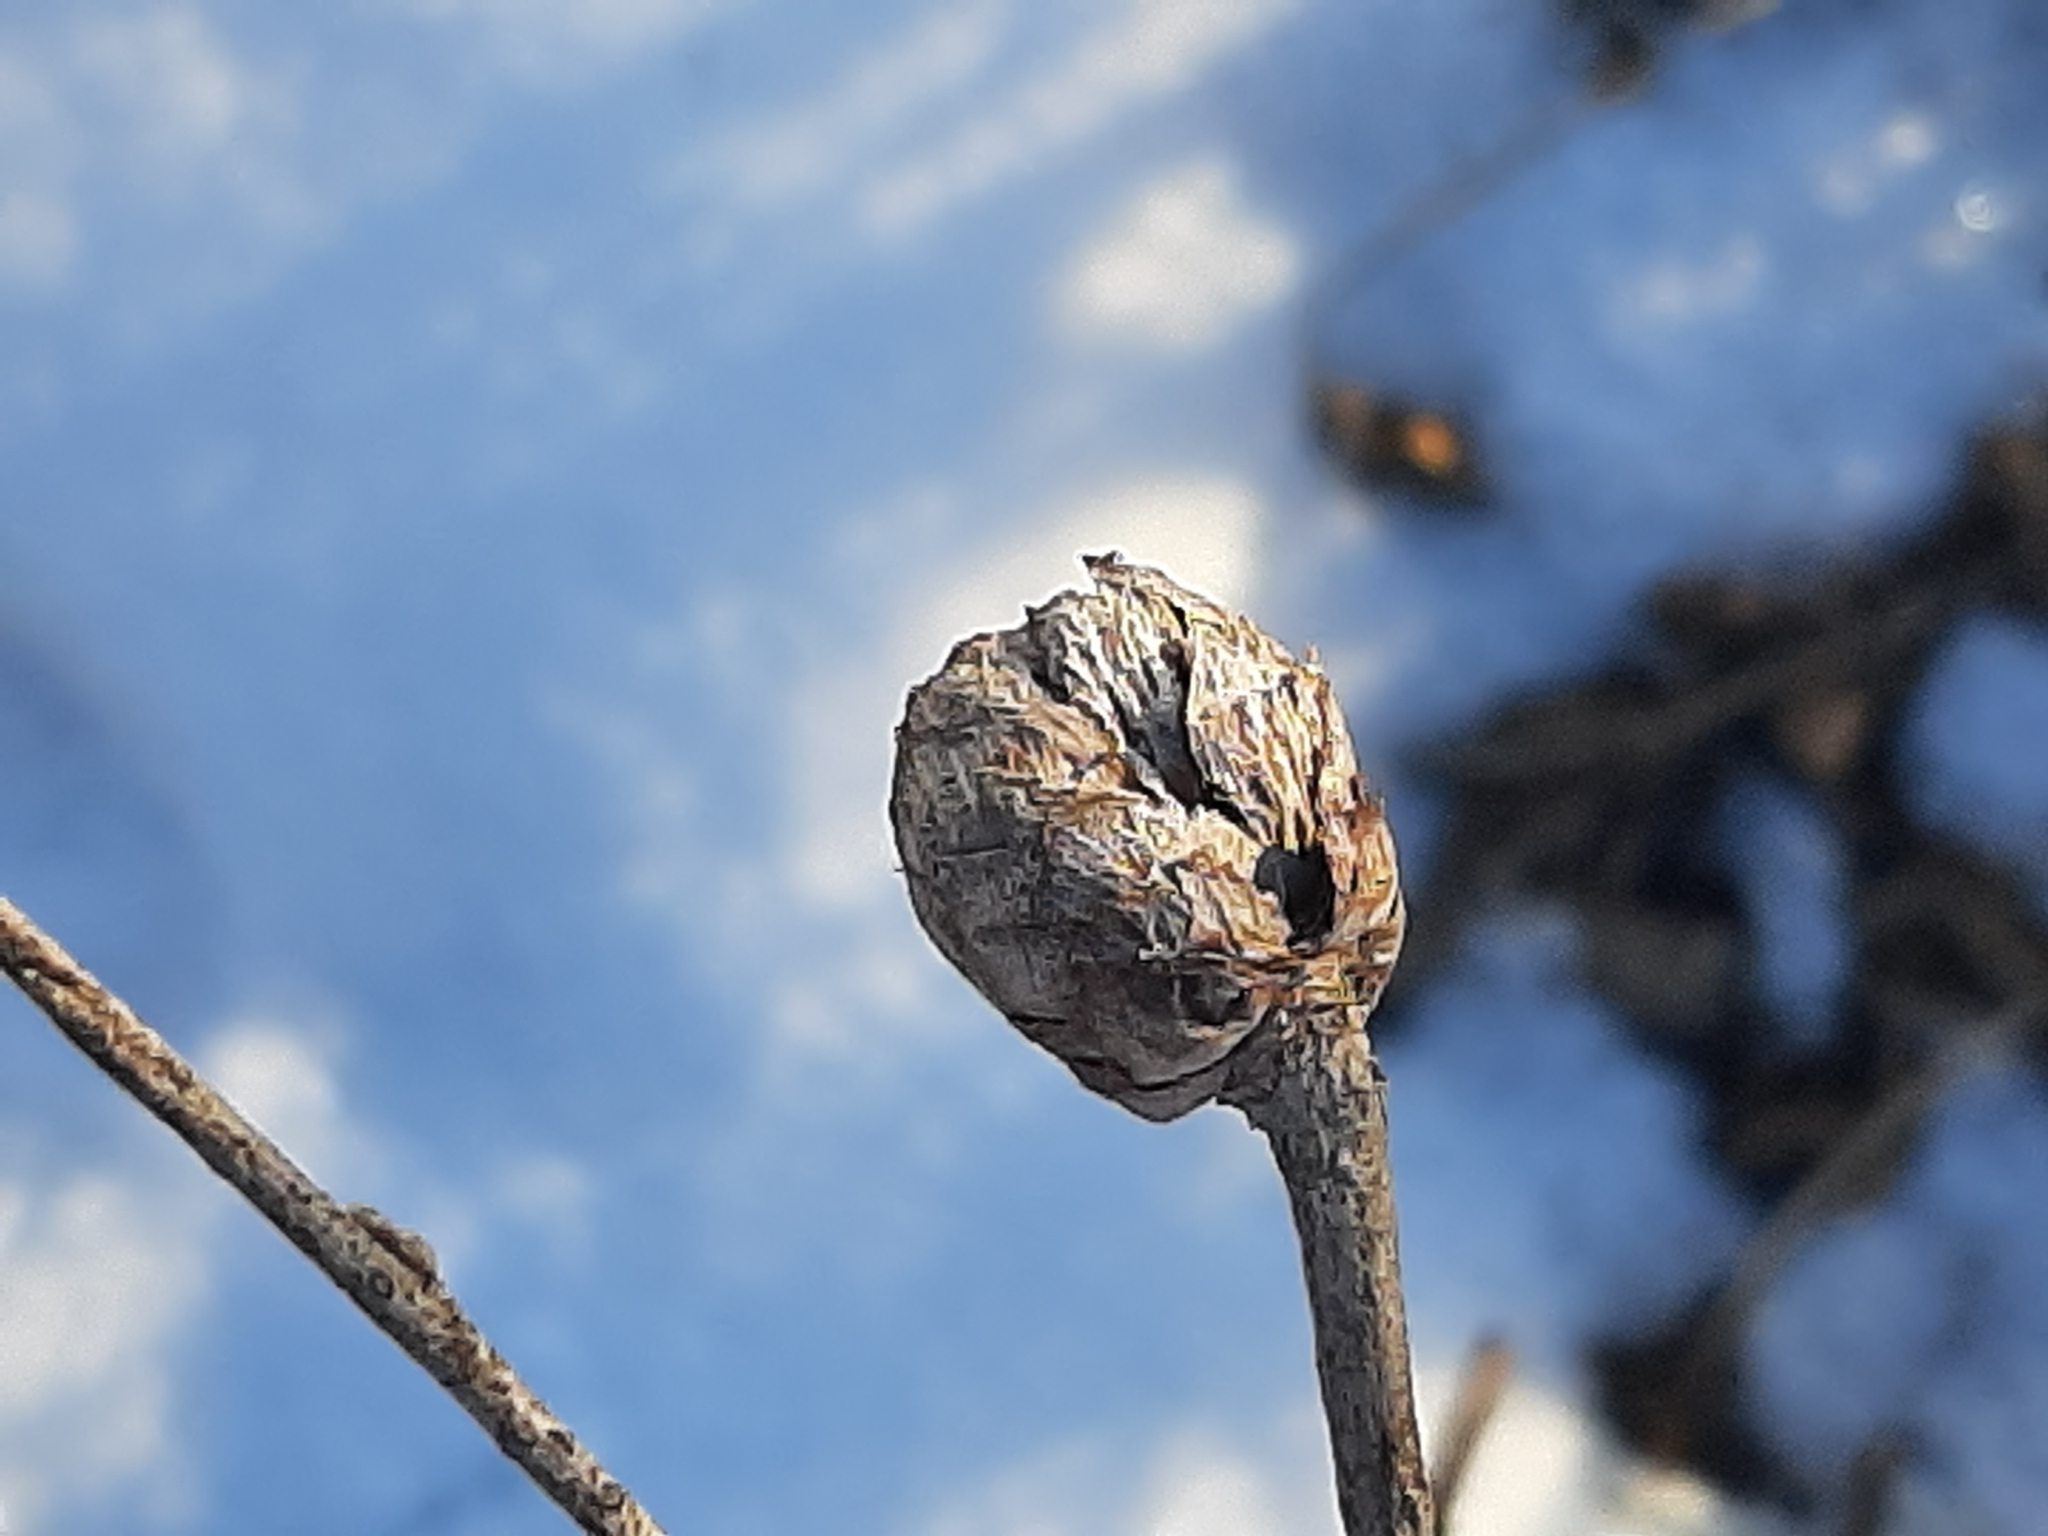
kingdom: Animalia
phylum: Arthropoda
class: Insecta
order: Diptera
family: Cecidomyiidae
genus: Rabdophaga
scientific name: Rabdophaga strobiloides
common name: Willow pinecone gall midge
